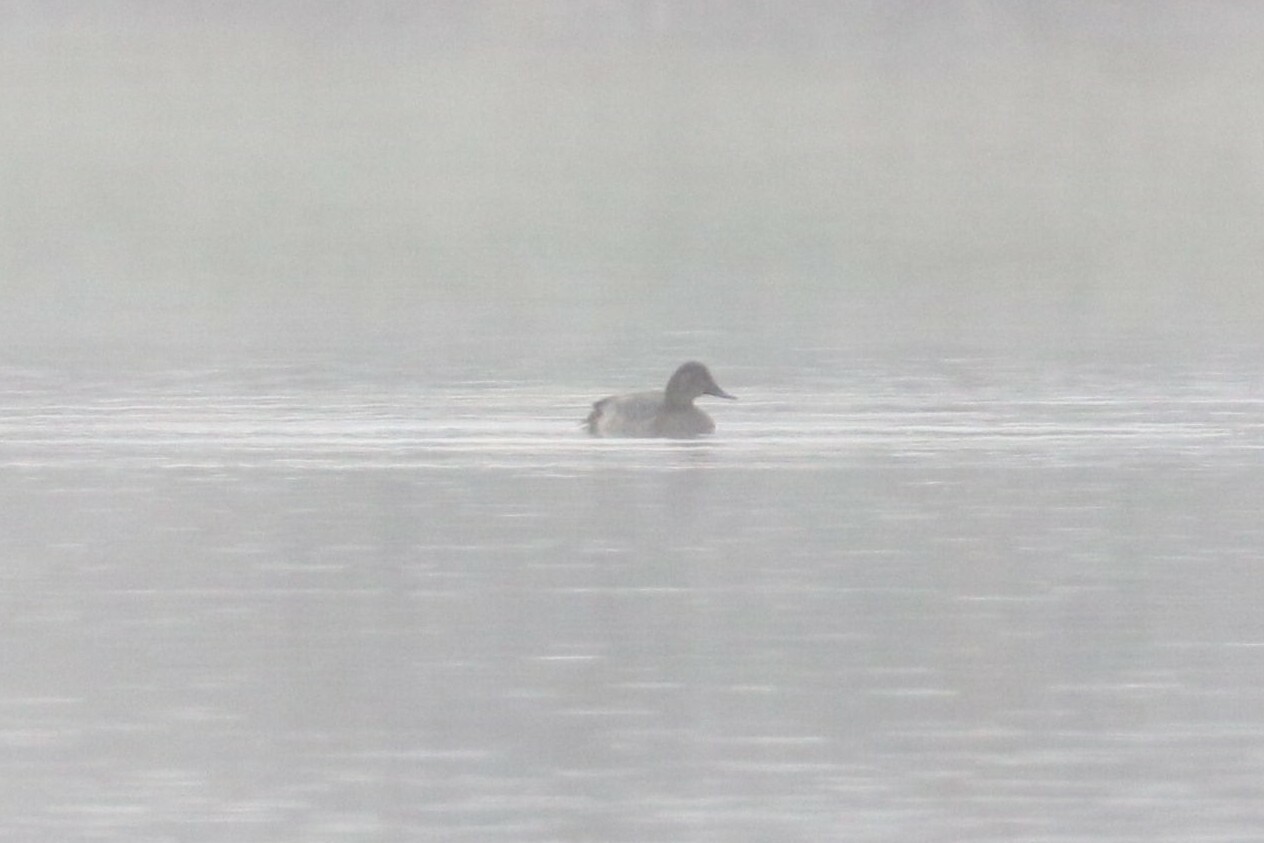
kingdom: Animalia
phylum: Chordata
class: Aves
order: Anseriformes
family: Anatidae
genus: Aythya
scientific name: Aythya ferina
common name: Common pochard
